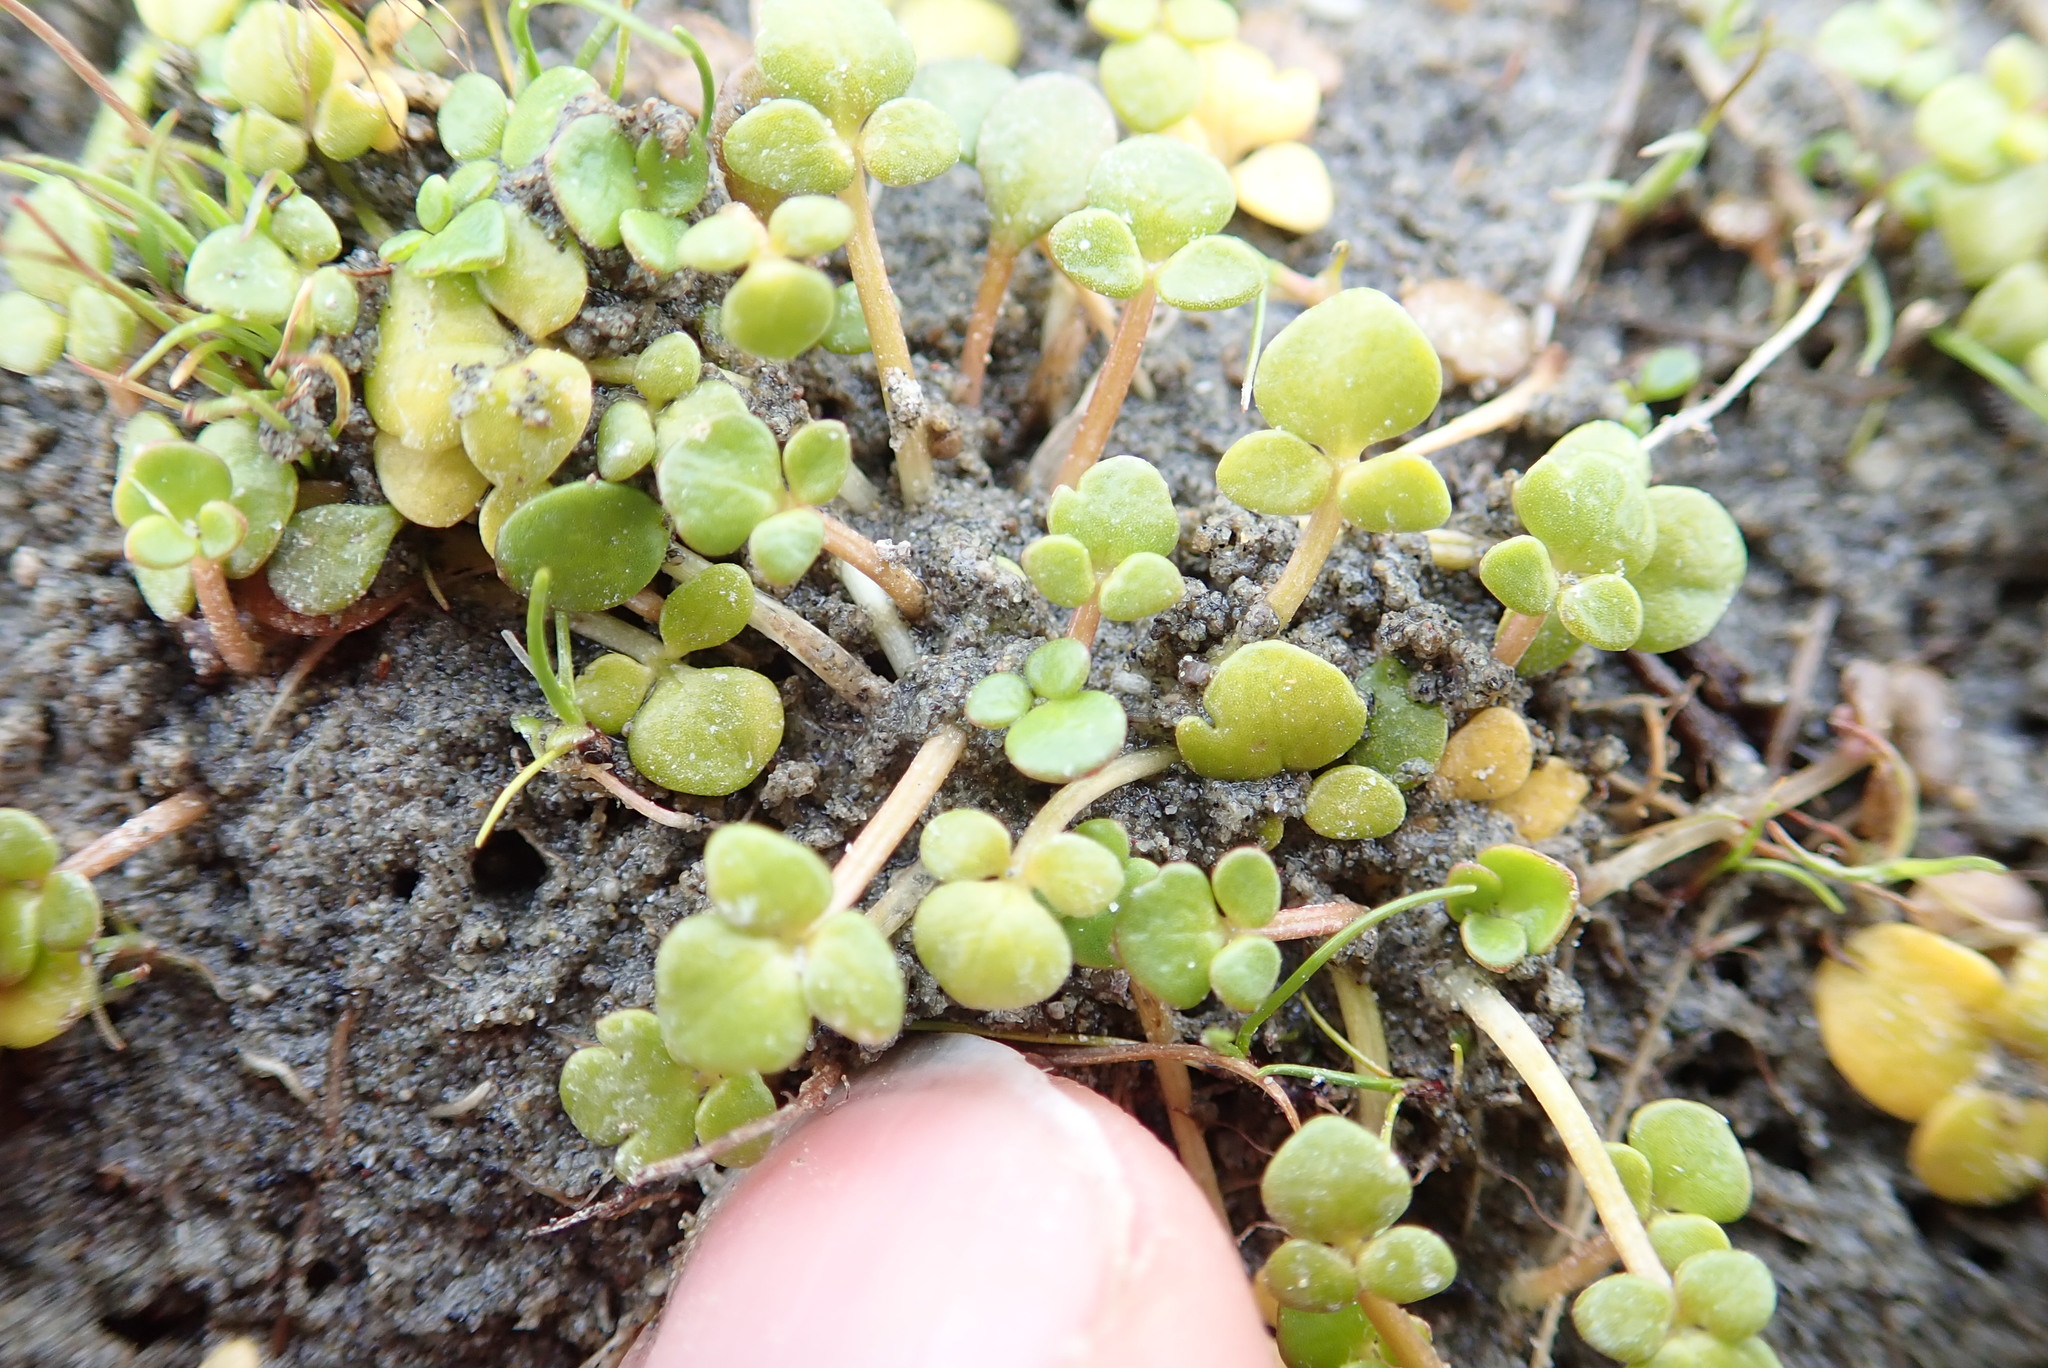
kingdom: Plantae
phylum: Tracheophyta
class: Magnoliopsida
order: Ranunculales
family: Ranunculaceae
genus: Ranunculus
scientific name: Ranunculus acaulis
